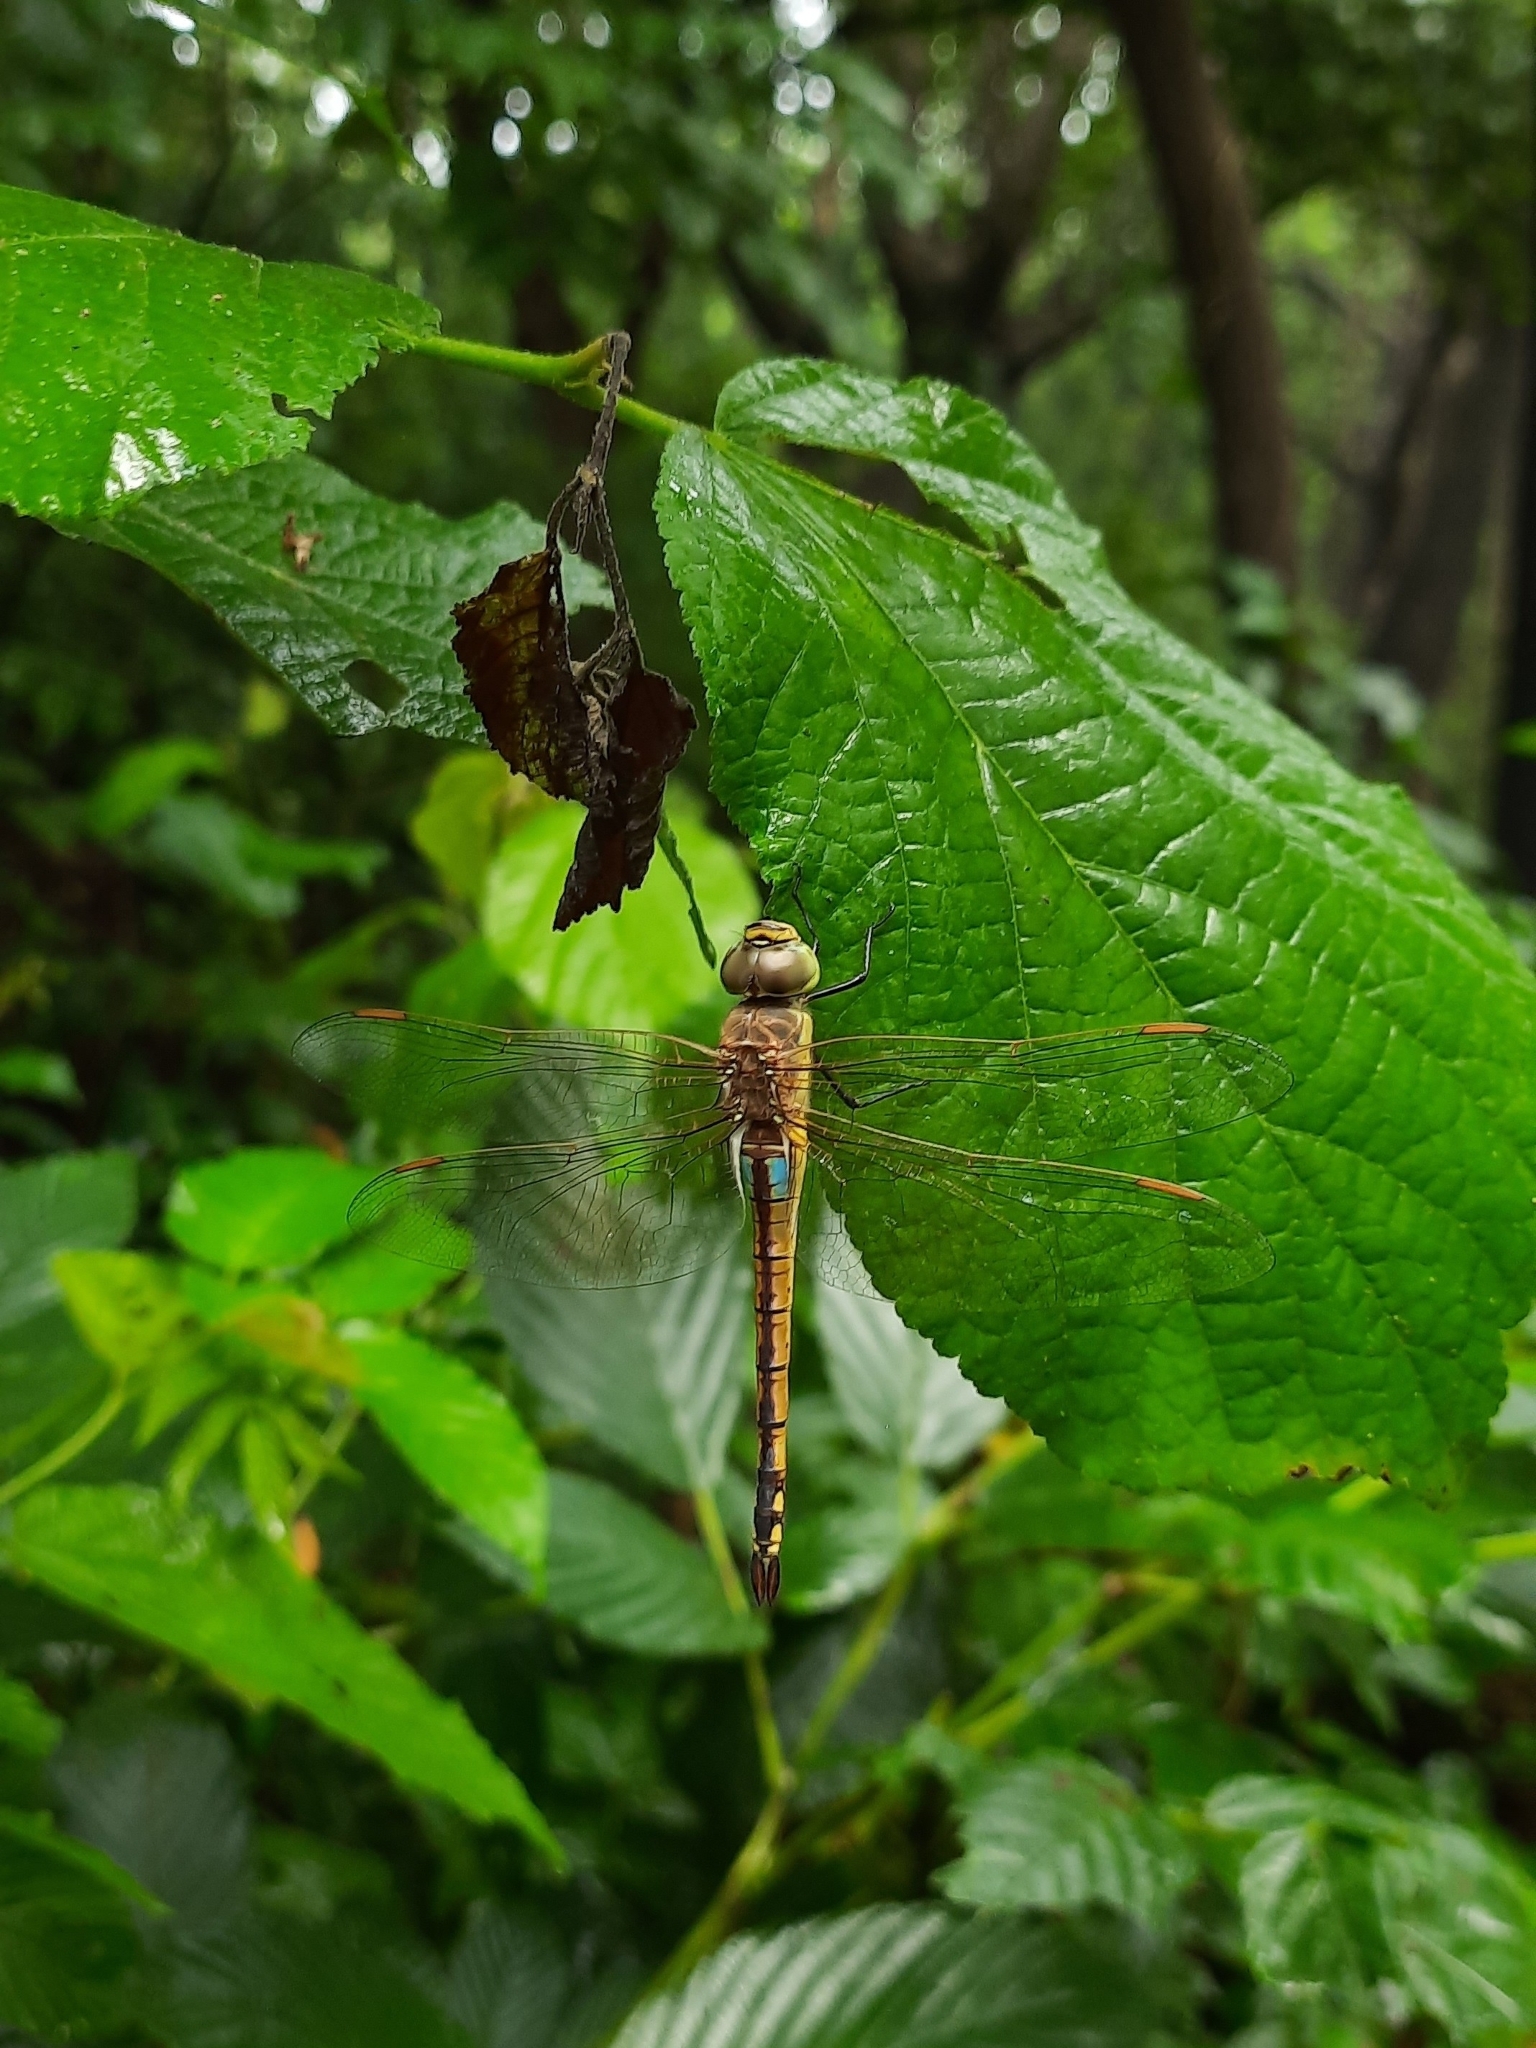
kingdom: Animalia
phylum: Arthropoda
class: Insecta
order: Odonata
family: Aeshnidae
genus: Anax
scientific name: Anax ephippiger
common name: Vagrant emperor
